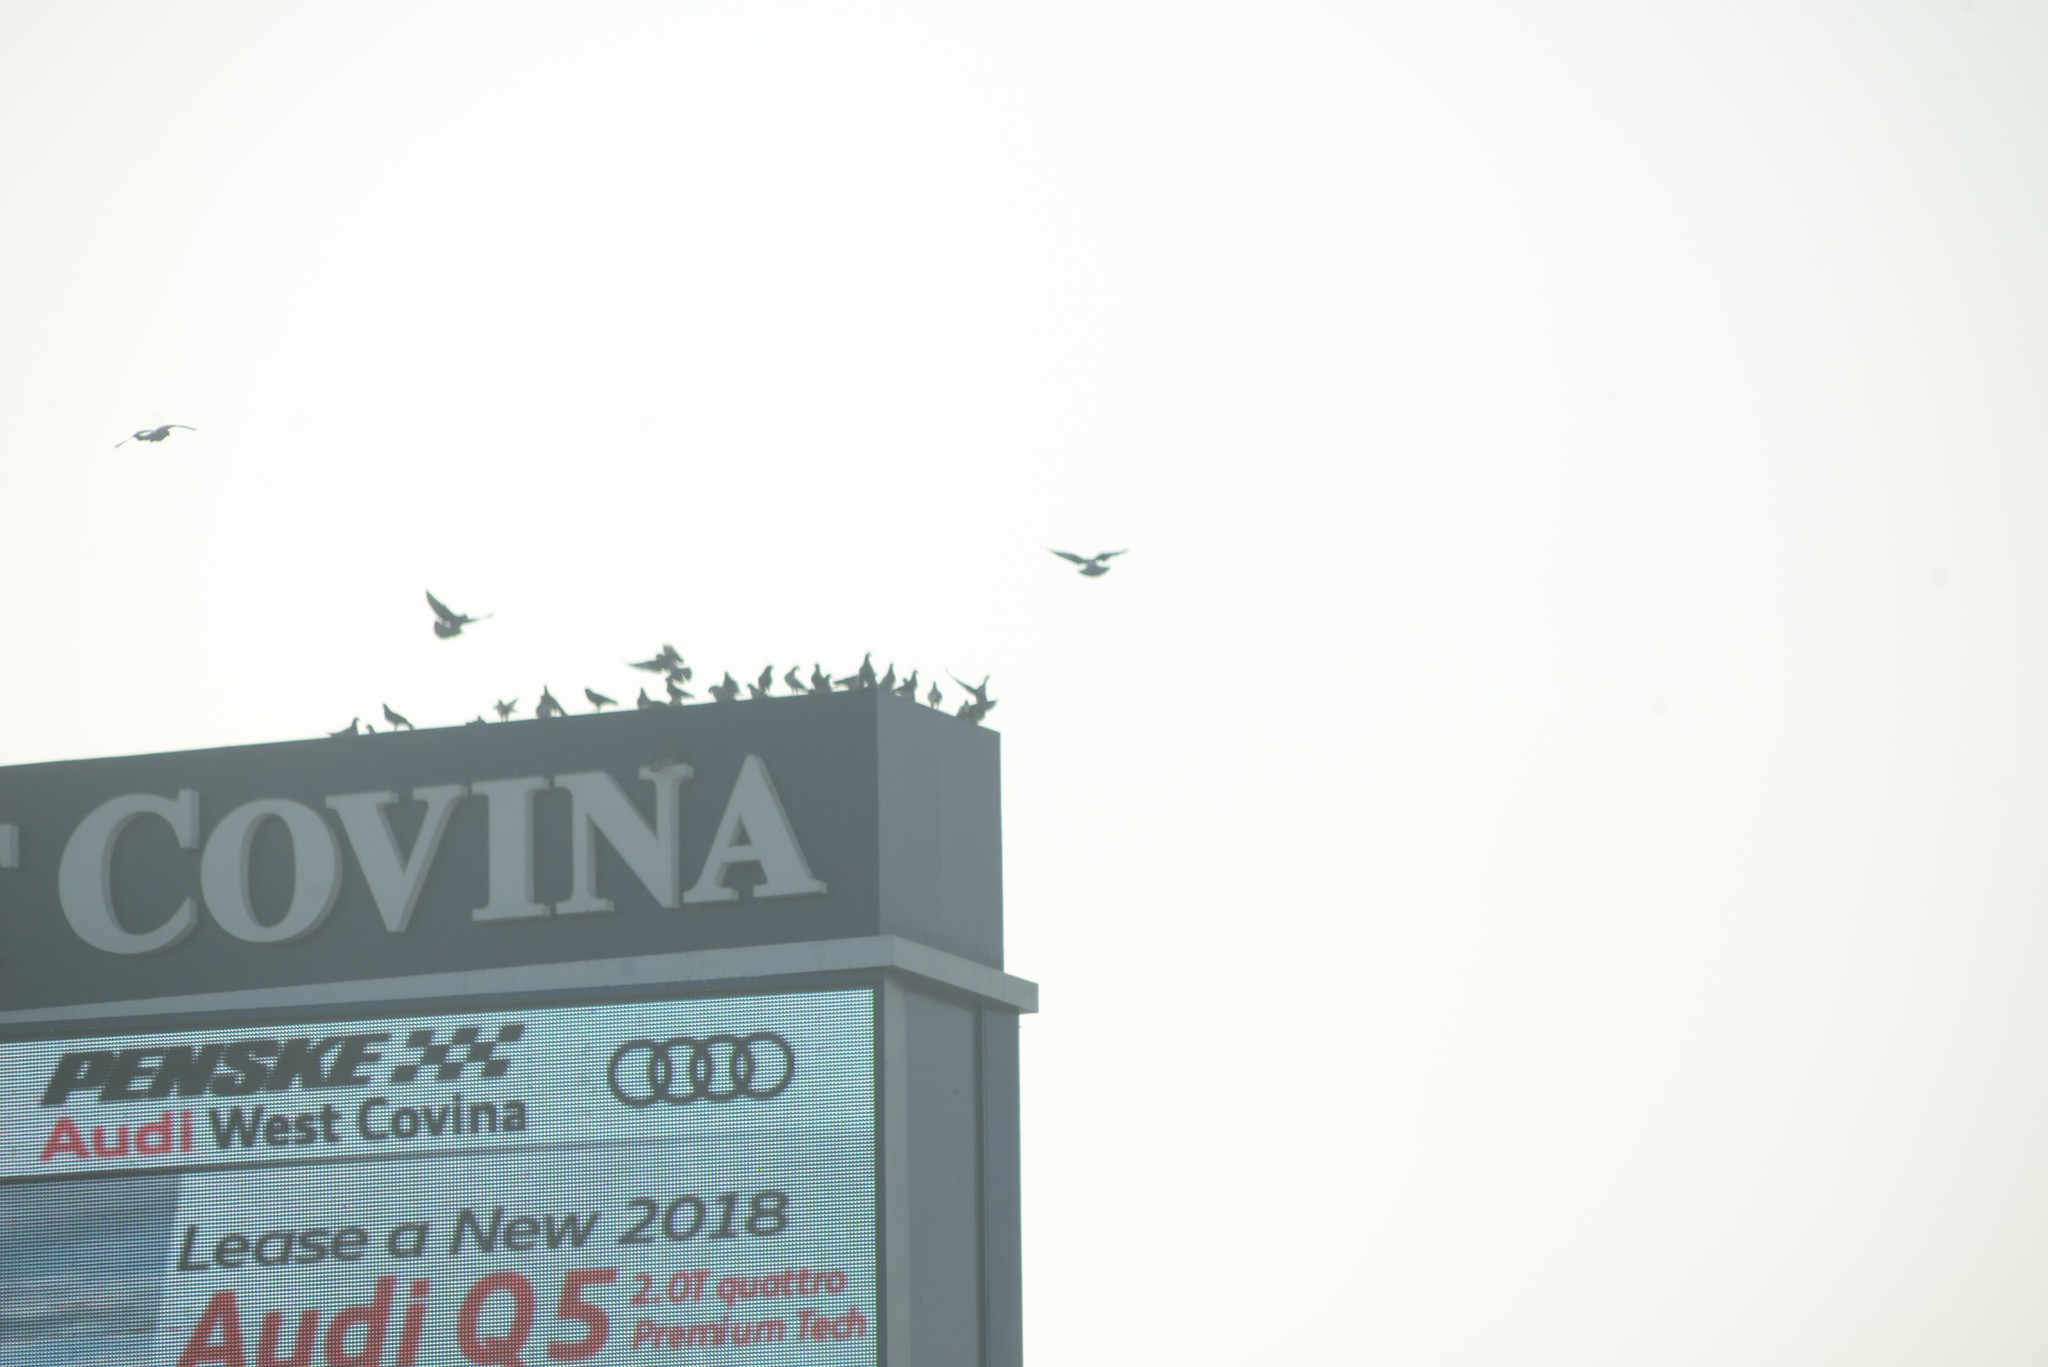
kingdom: Animalia
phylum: Chordata
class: Aves
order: Columbiformes
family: Columbidae
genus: Columba
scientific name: Columba livia
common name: Rock pigeon
